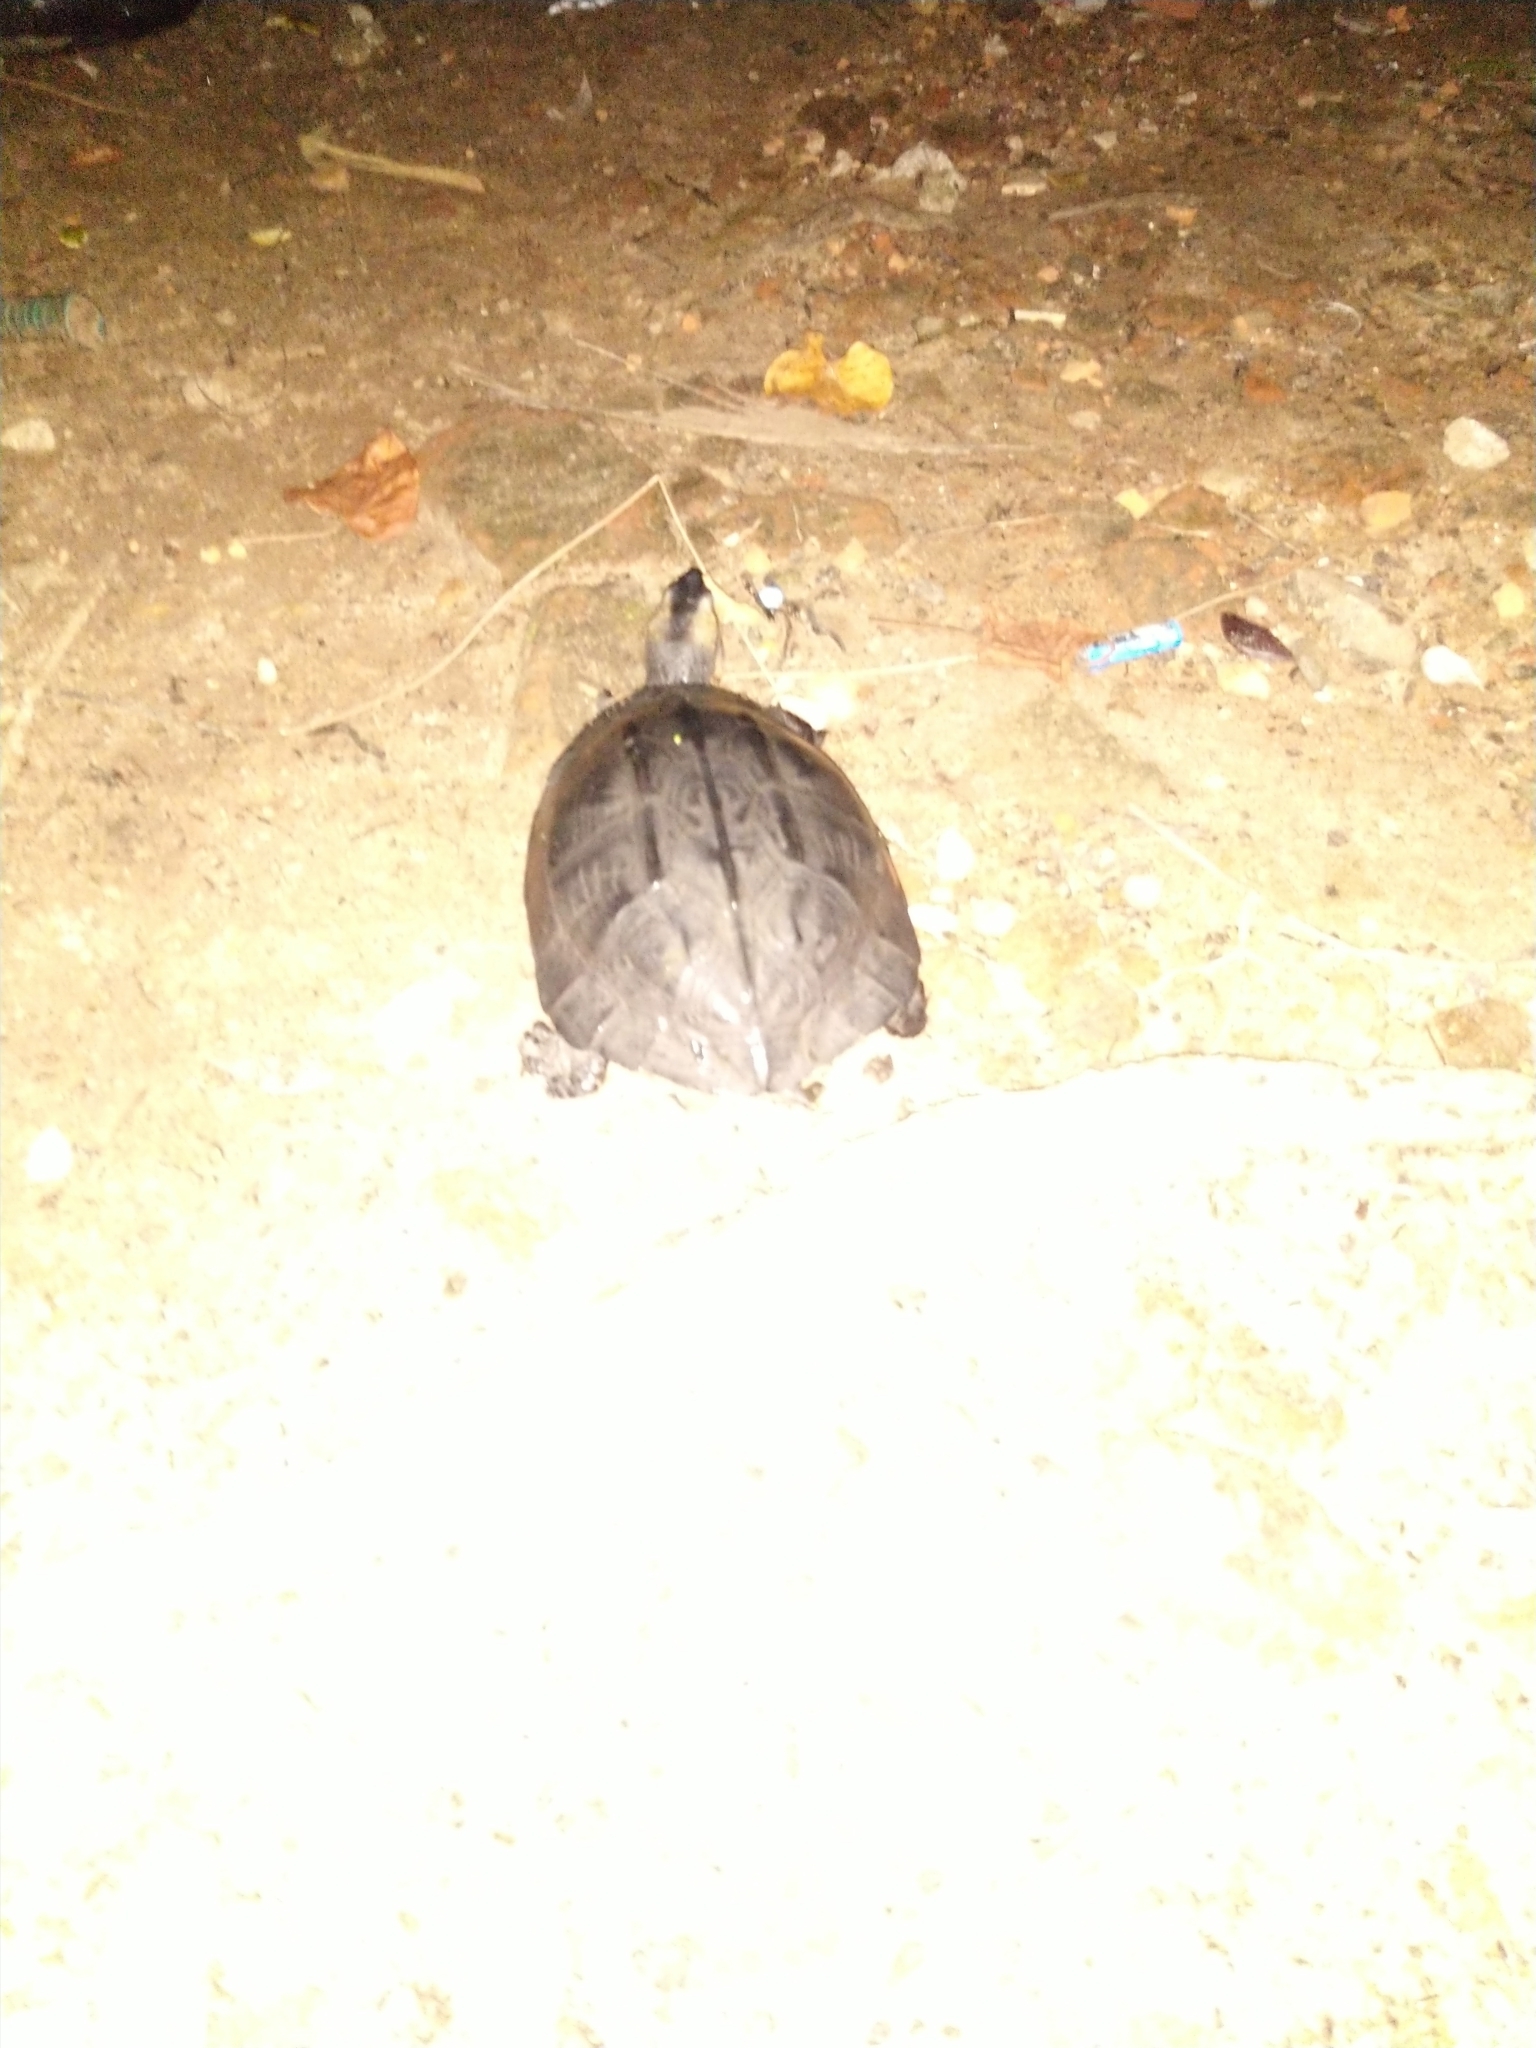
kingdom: Animalia
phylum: Chordata
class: Testudines
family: Geoemydidae
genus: Melanochelys
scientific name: Melanochelys trijuga
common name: Indian black turtle
